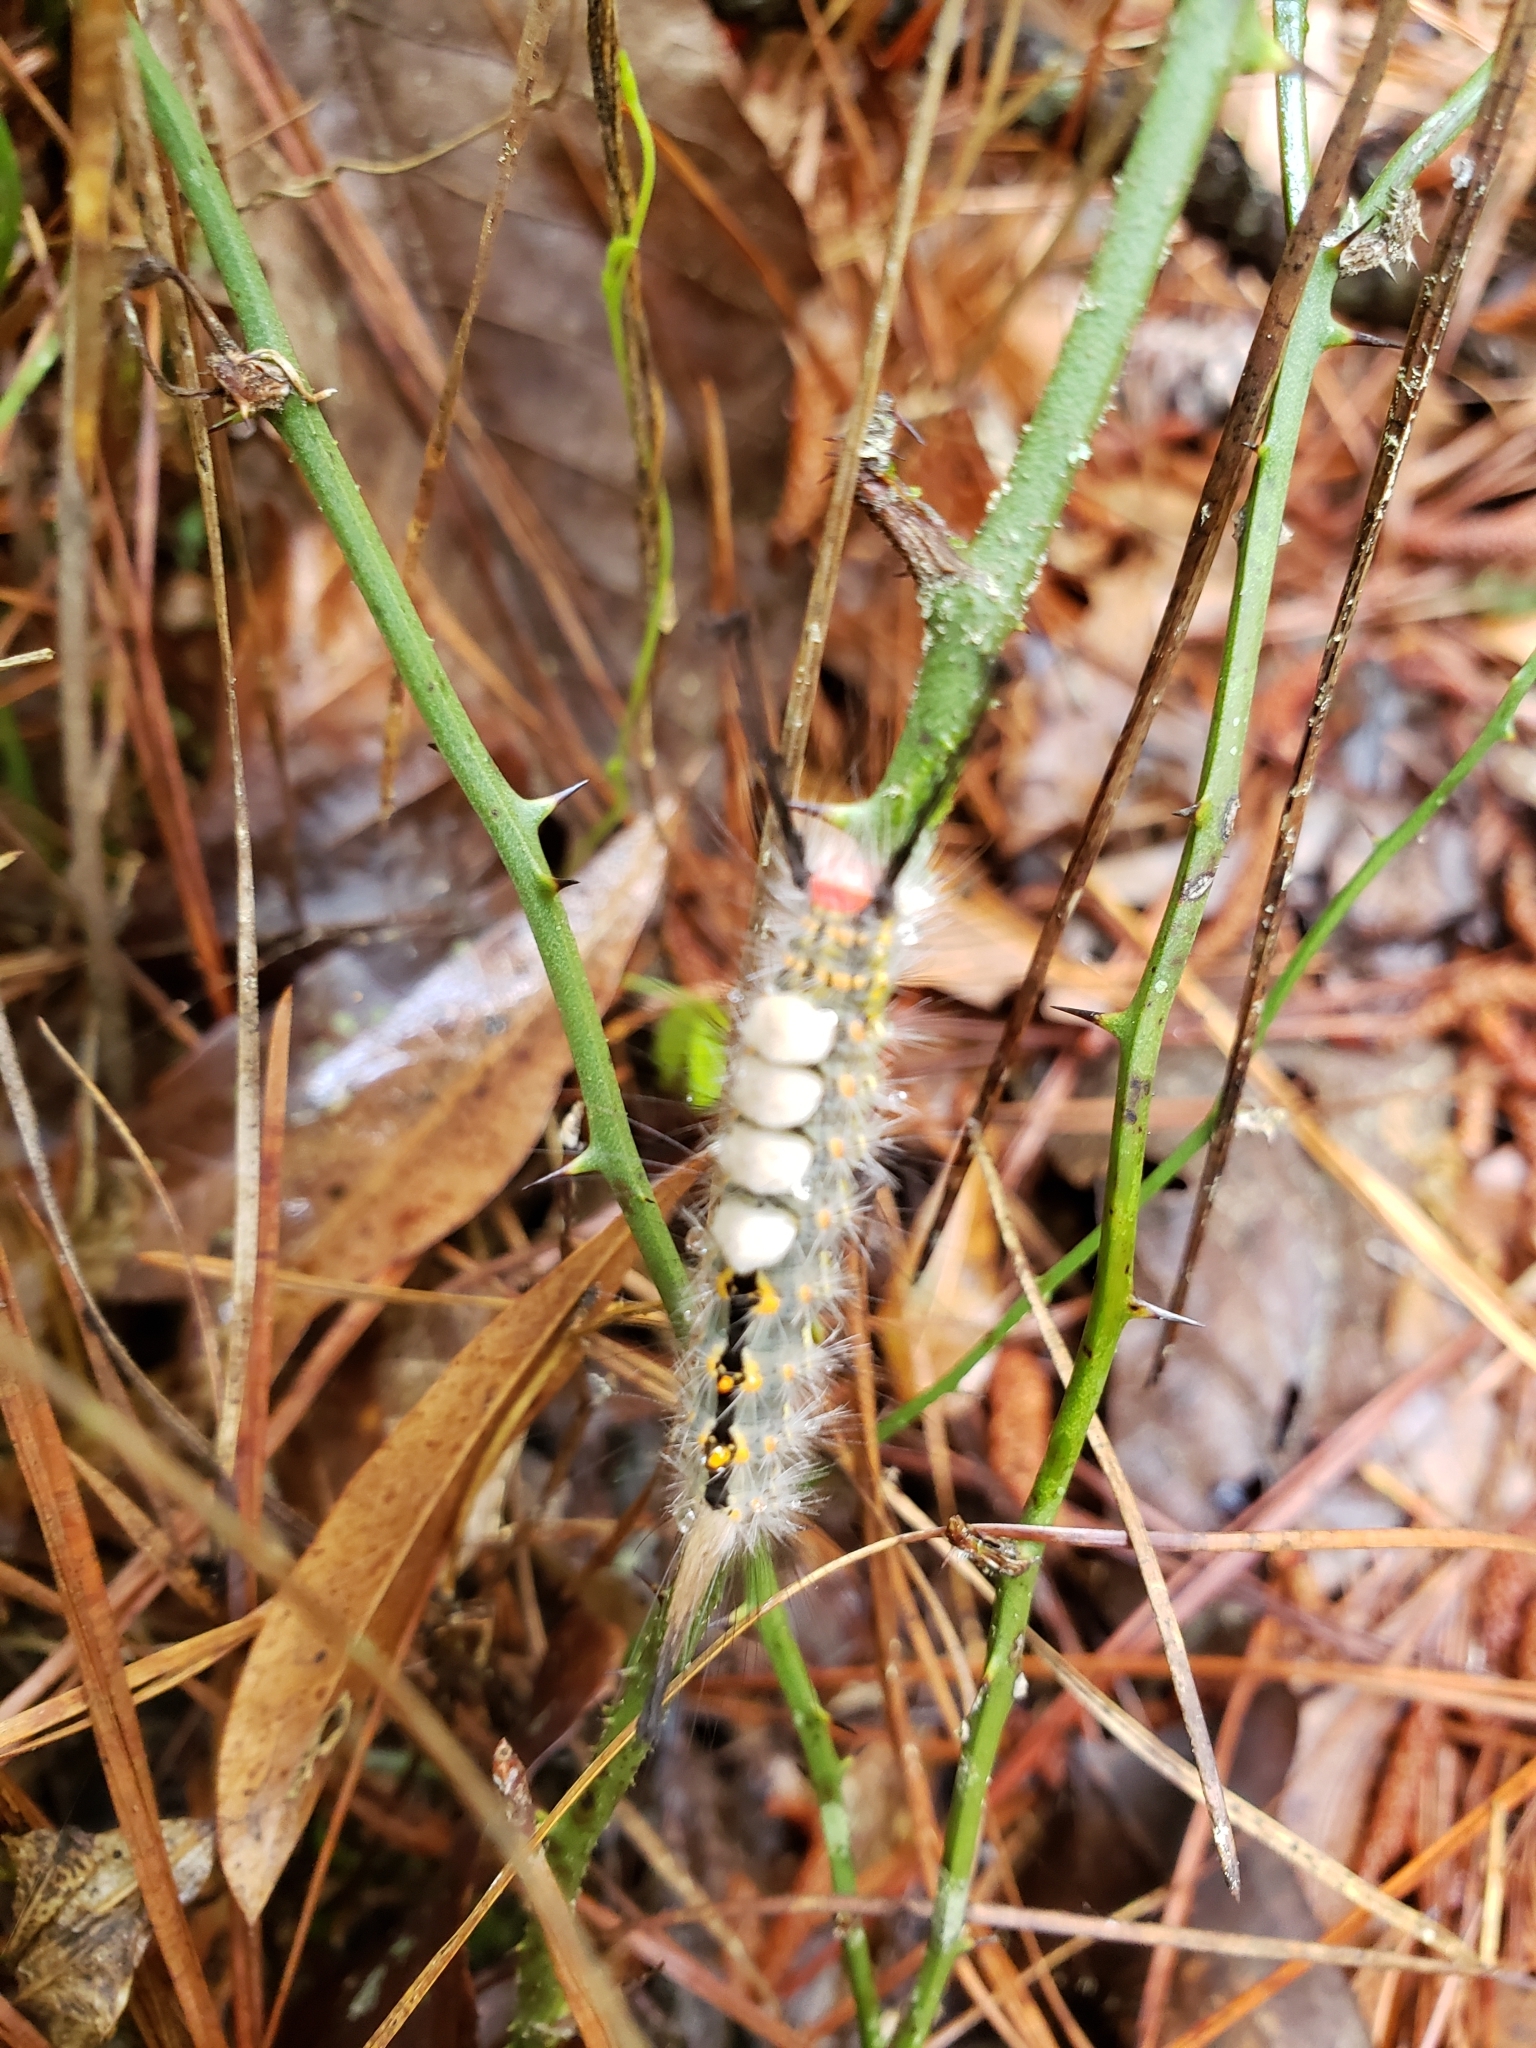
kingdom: Animalia
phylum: Arthropoda
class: Insecta
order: Lepidoptera
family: Erebidae
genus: Orgyia
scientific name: Orgyia detrita
